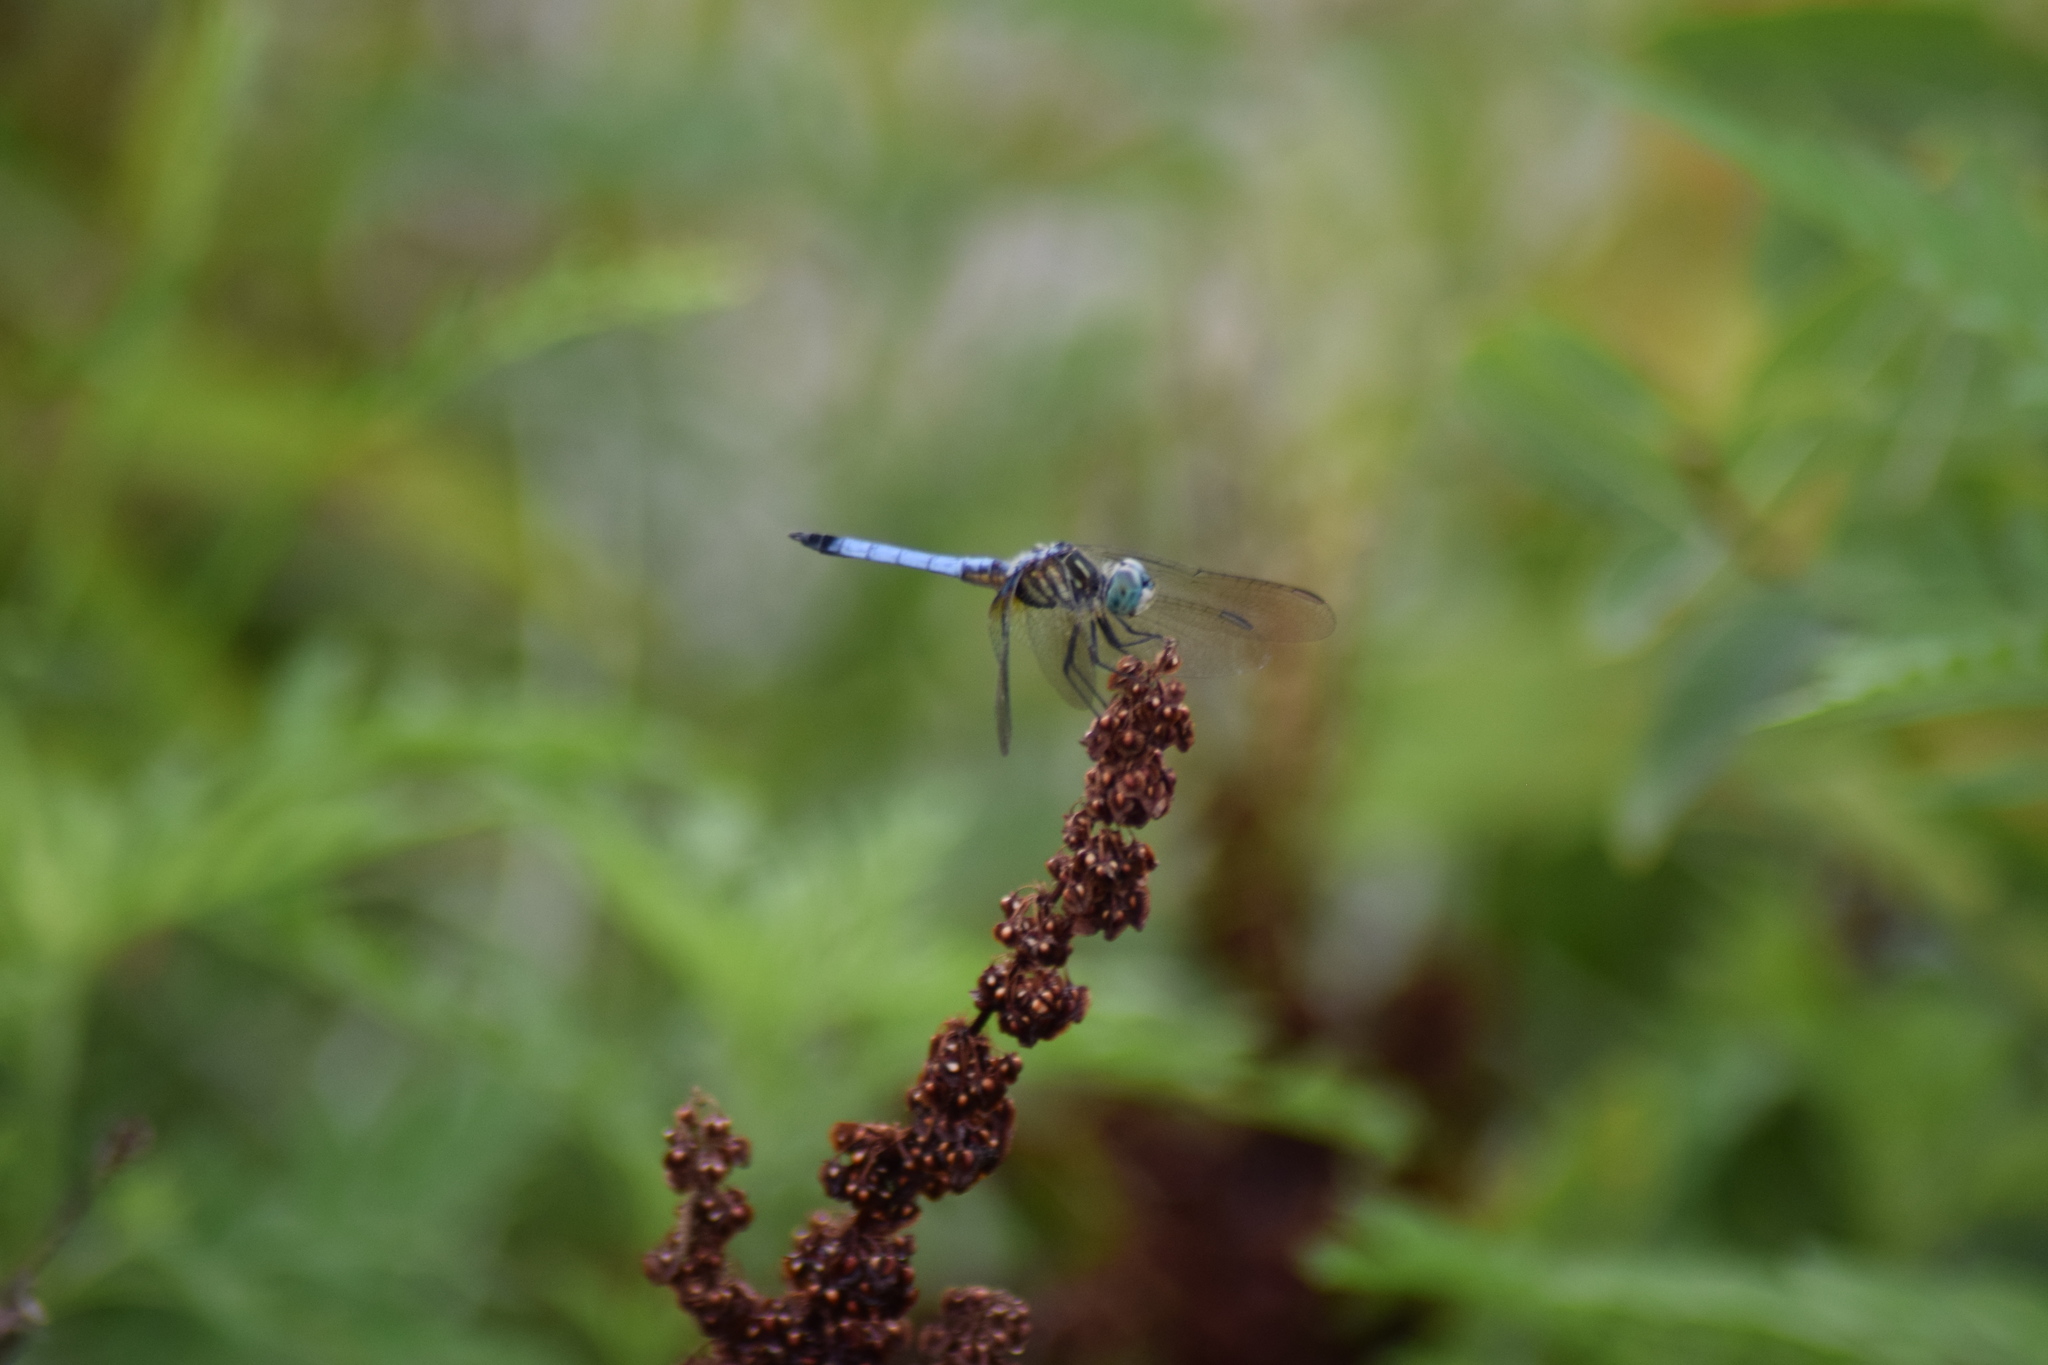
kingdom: Animalia
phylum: Arthropoda
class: Insecta
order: Odonata
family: Libellulidae
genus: Pachydiplax
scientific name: Pachydiplax longipennis
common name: Blue dasher
